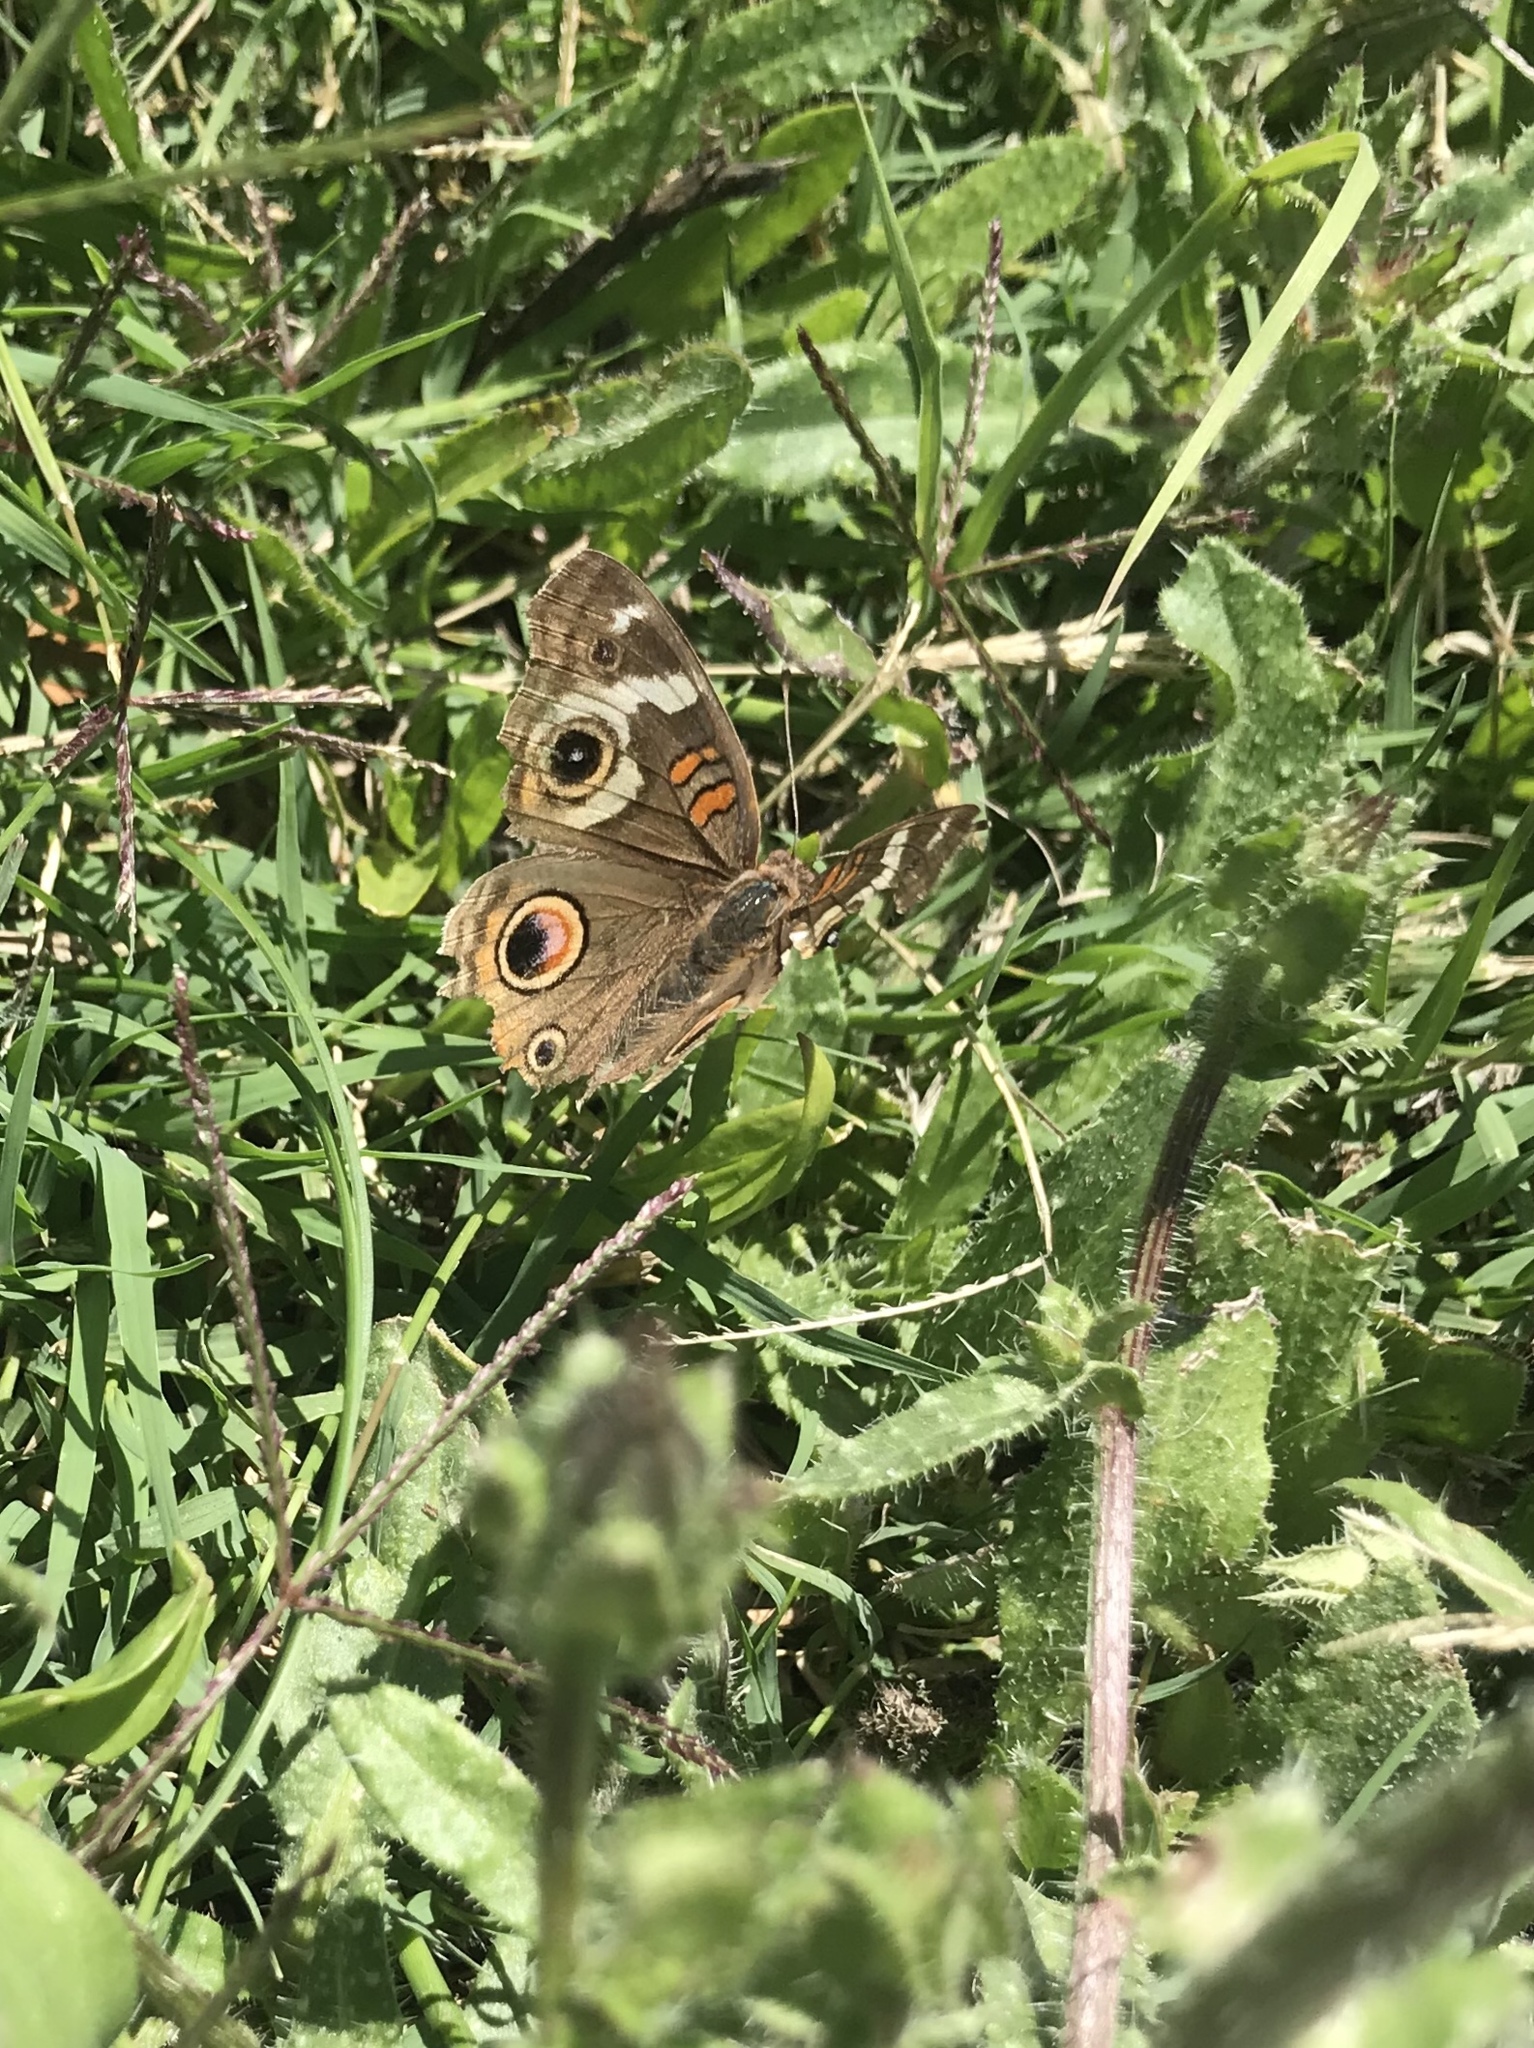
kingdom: Animalia
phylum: Arthropoda
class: Insecta
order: Lepidoptera
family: Nymphalidae
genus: Junonia
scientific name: Junonia grisea
